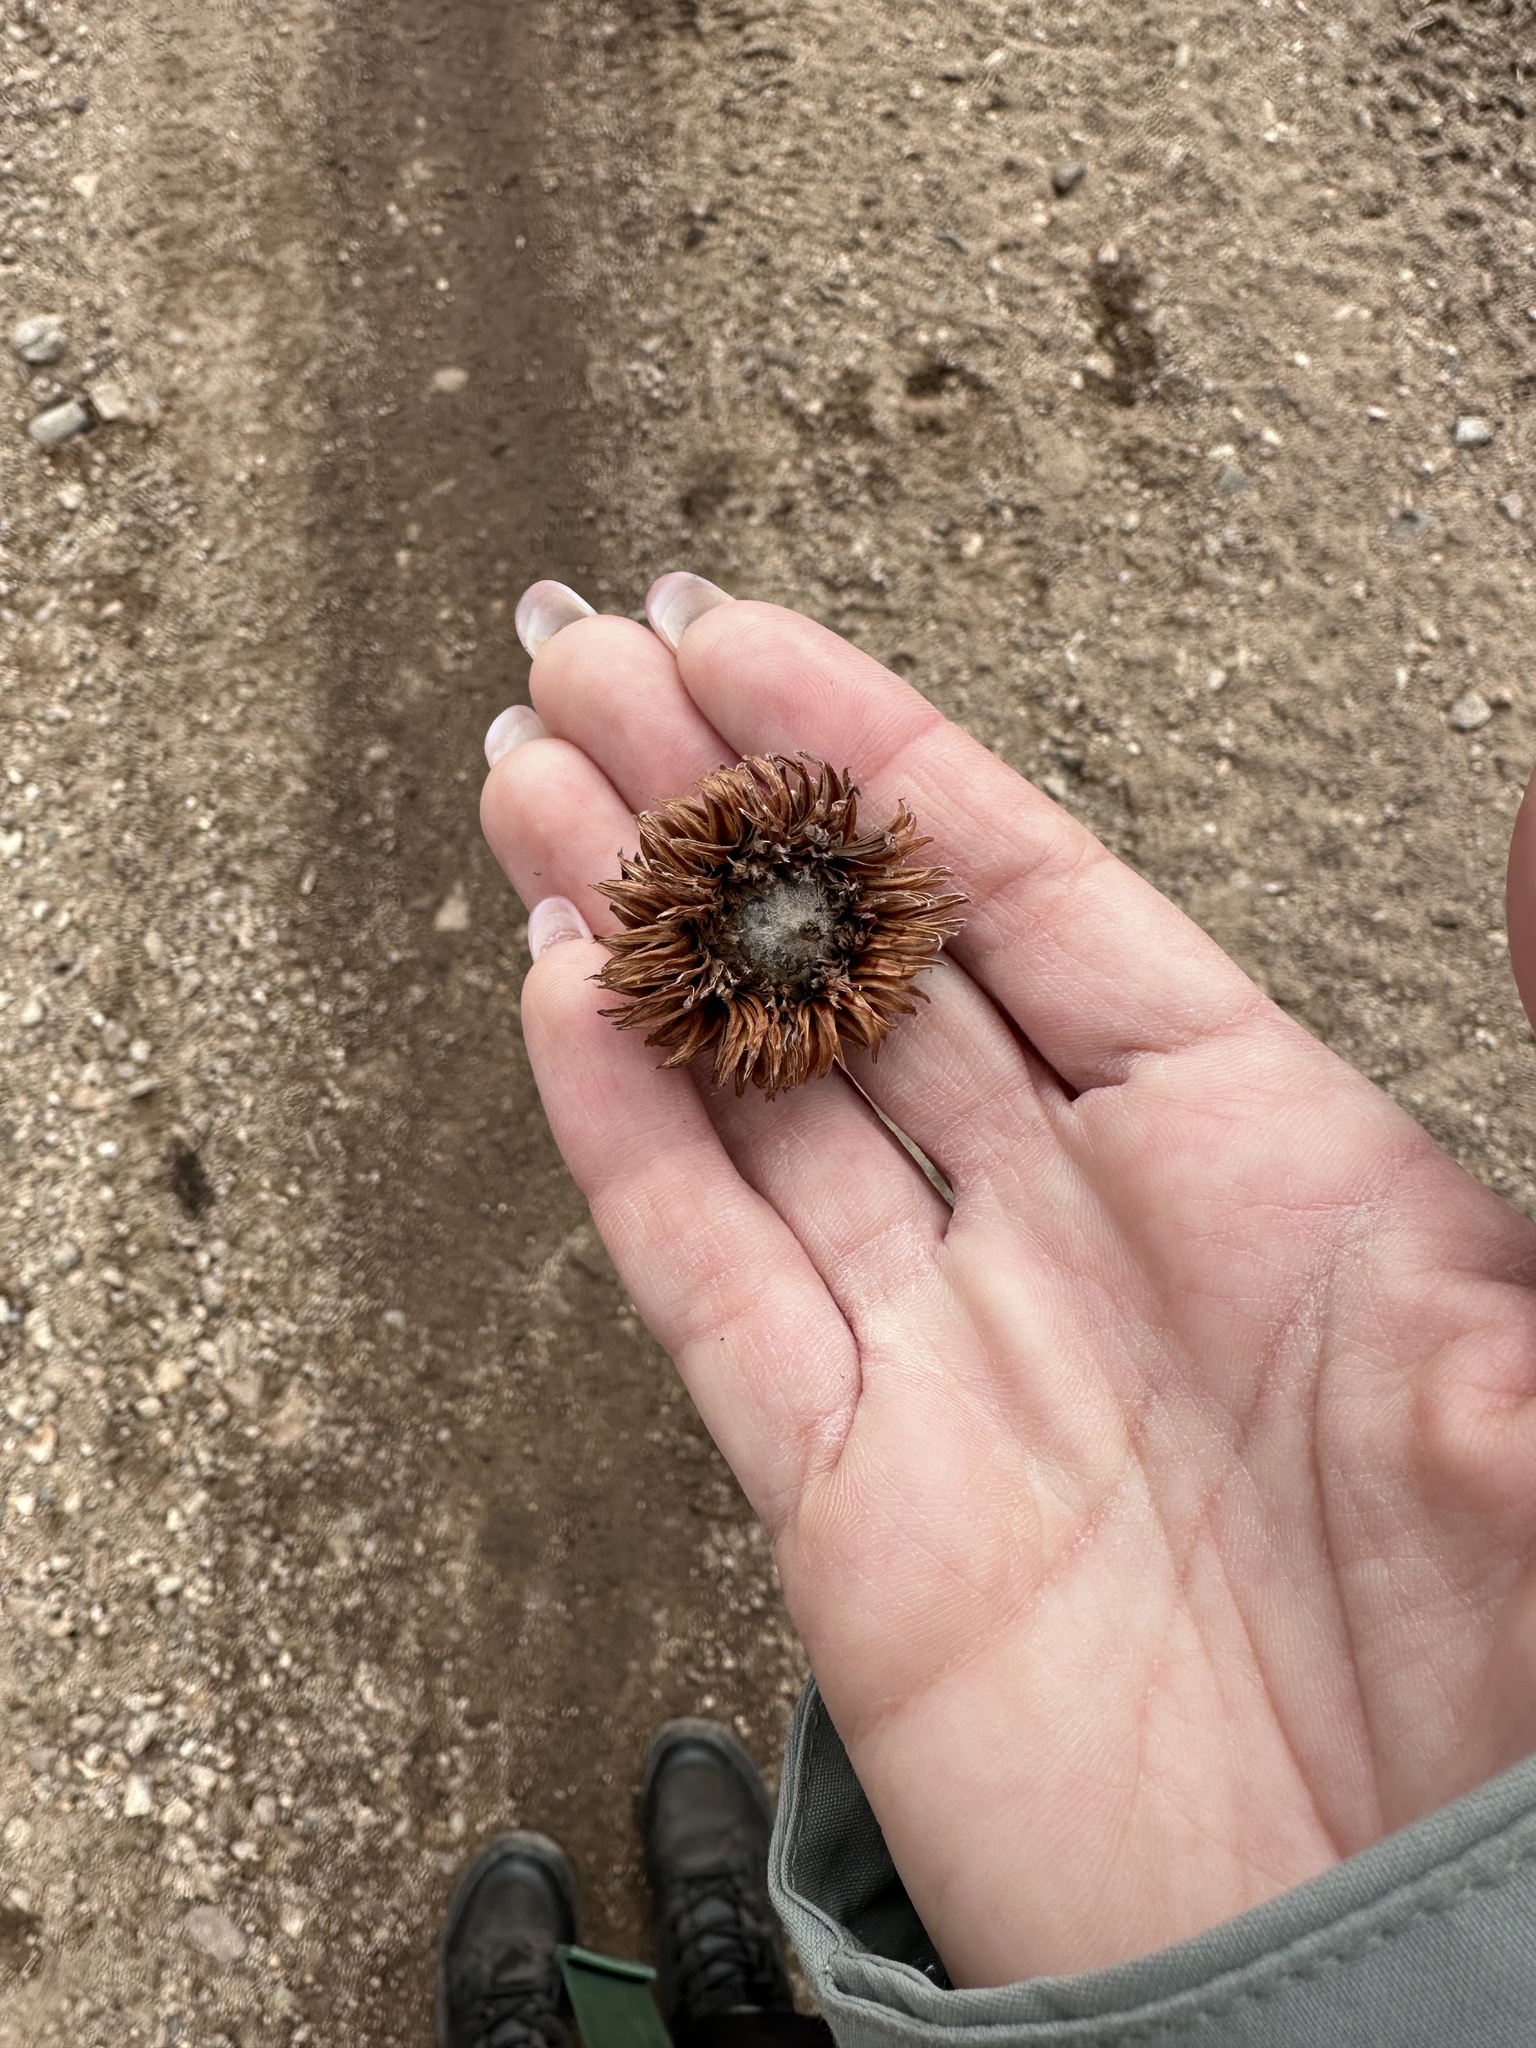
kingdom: Plantae
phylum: Tracheophyta
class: Magnoliopsida
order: Fagales
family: Fagaceae
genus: Quercus
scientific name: Quercus dentata
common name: Daimyo oak
